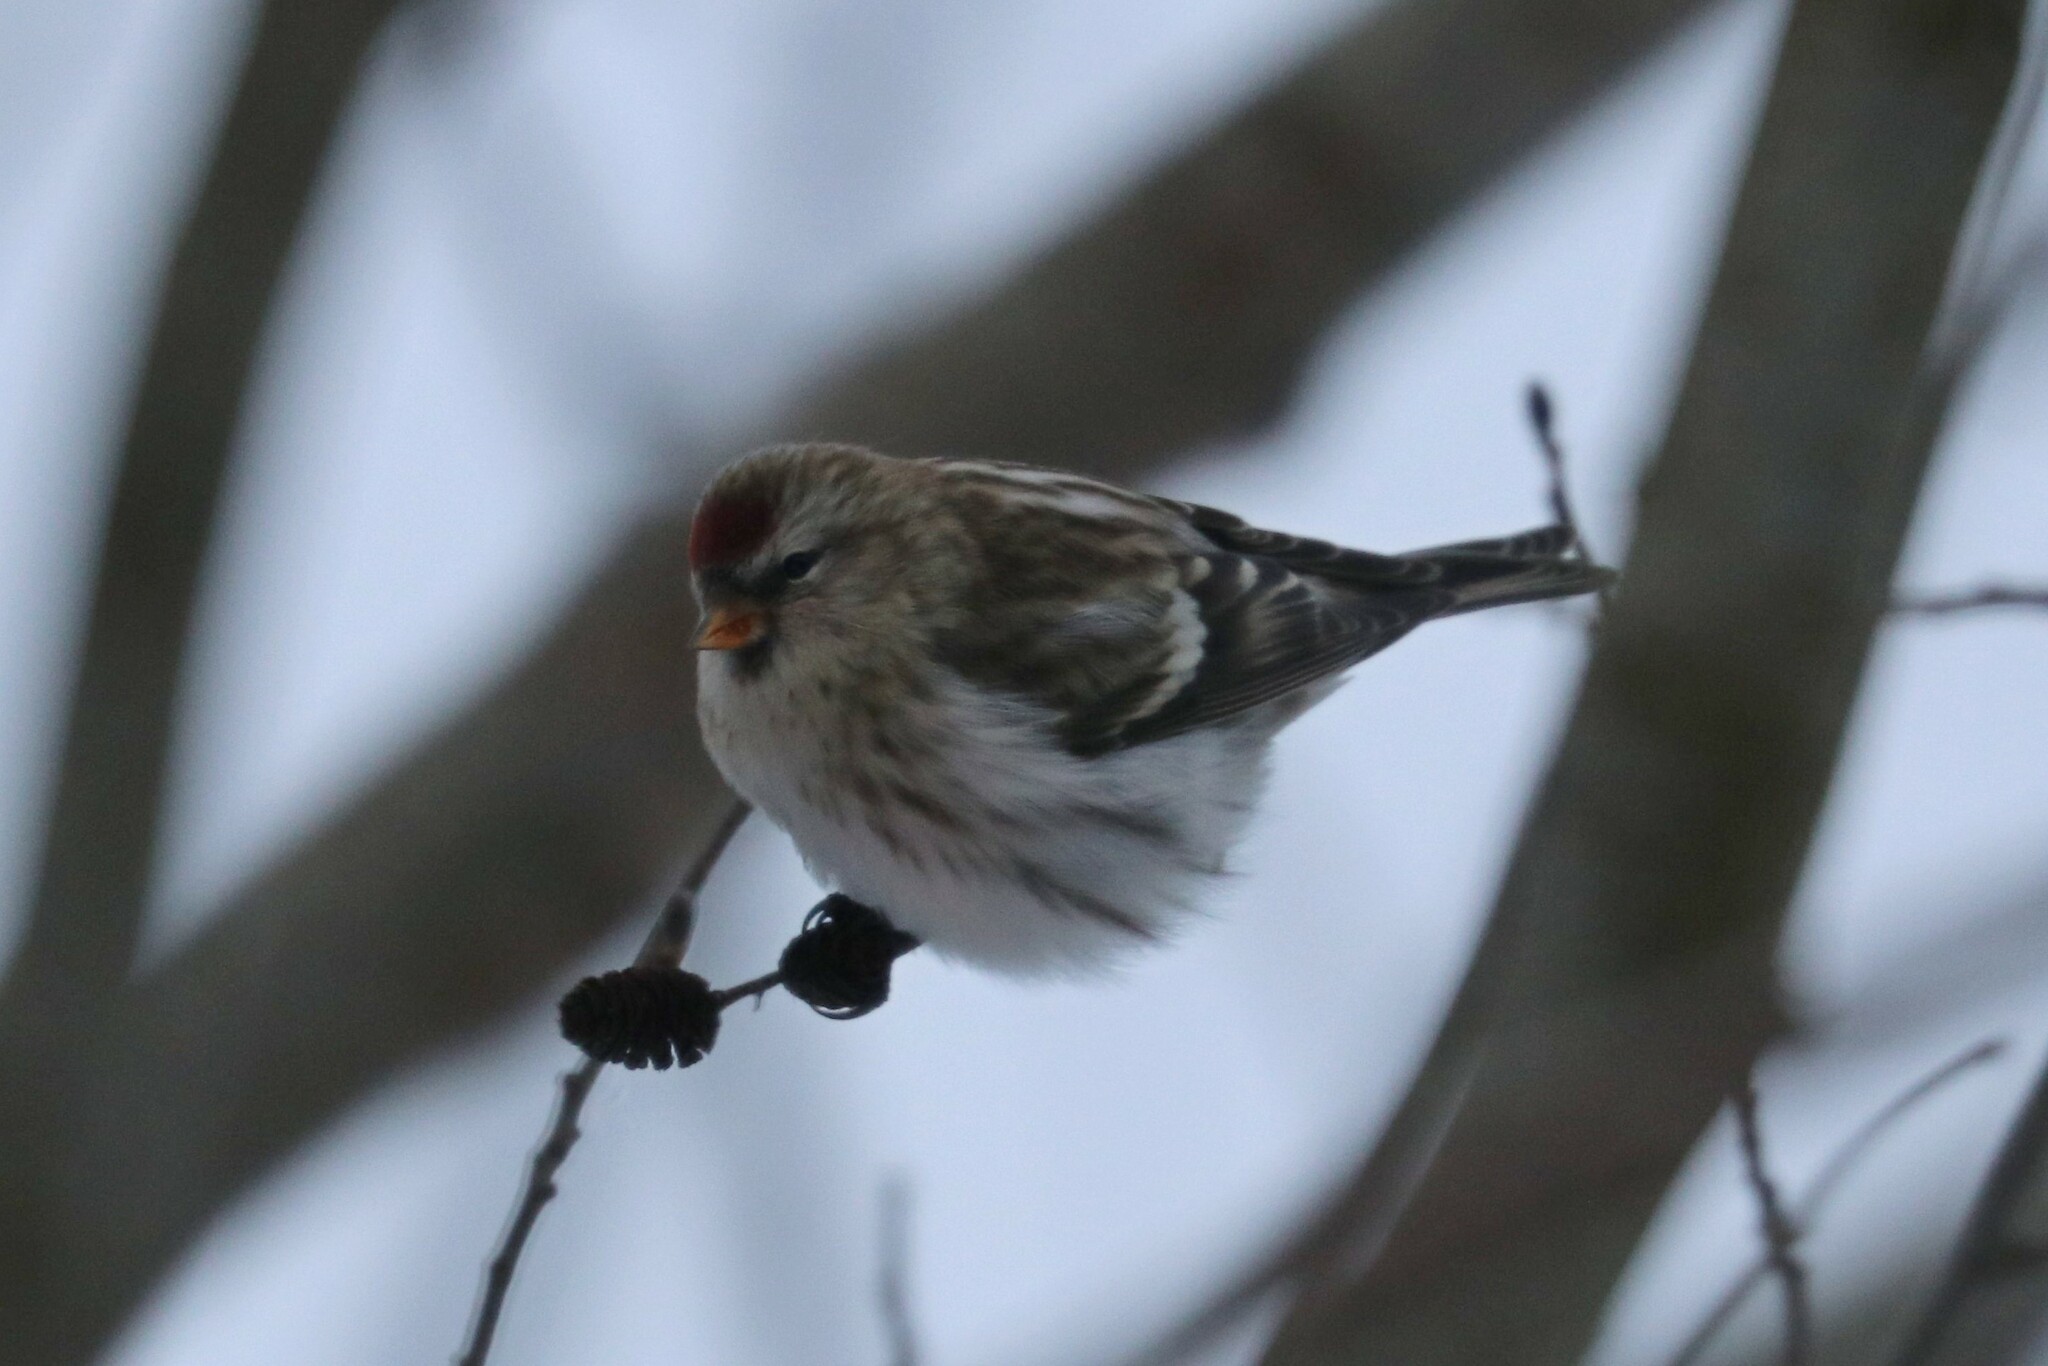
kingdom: Animalia
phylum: Chordata
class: Aves
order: Passeriformes
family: Fringillidae
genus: Acanthis
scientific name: Acanthis flammea
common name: Common redpoll
